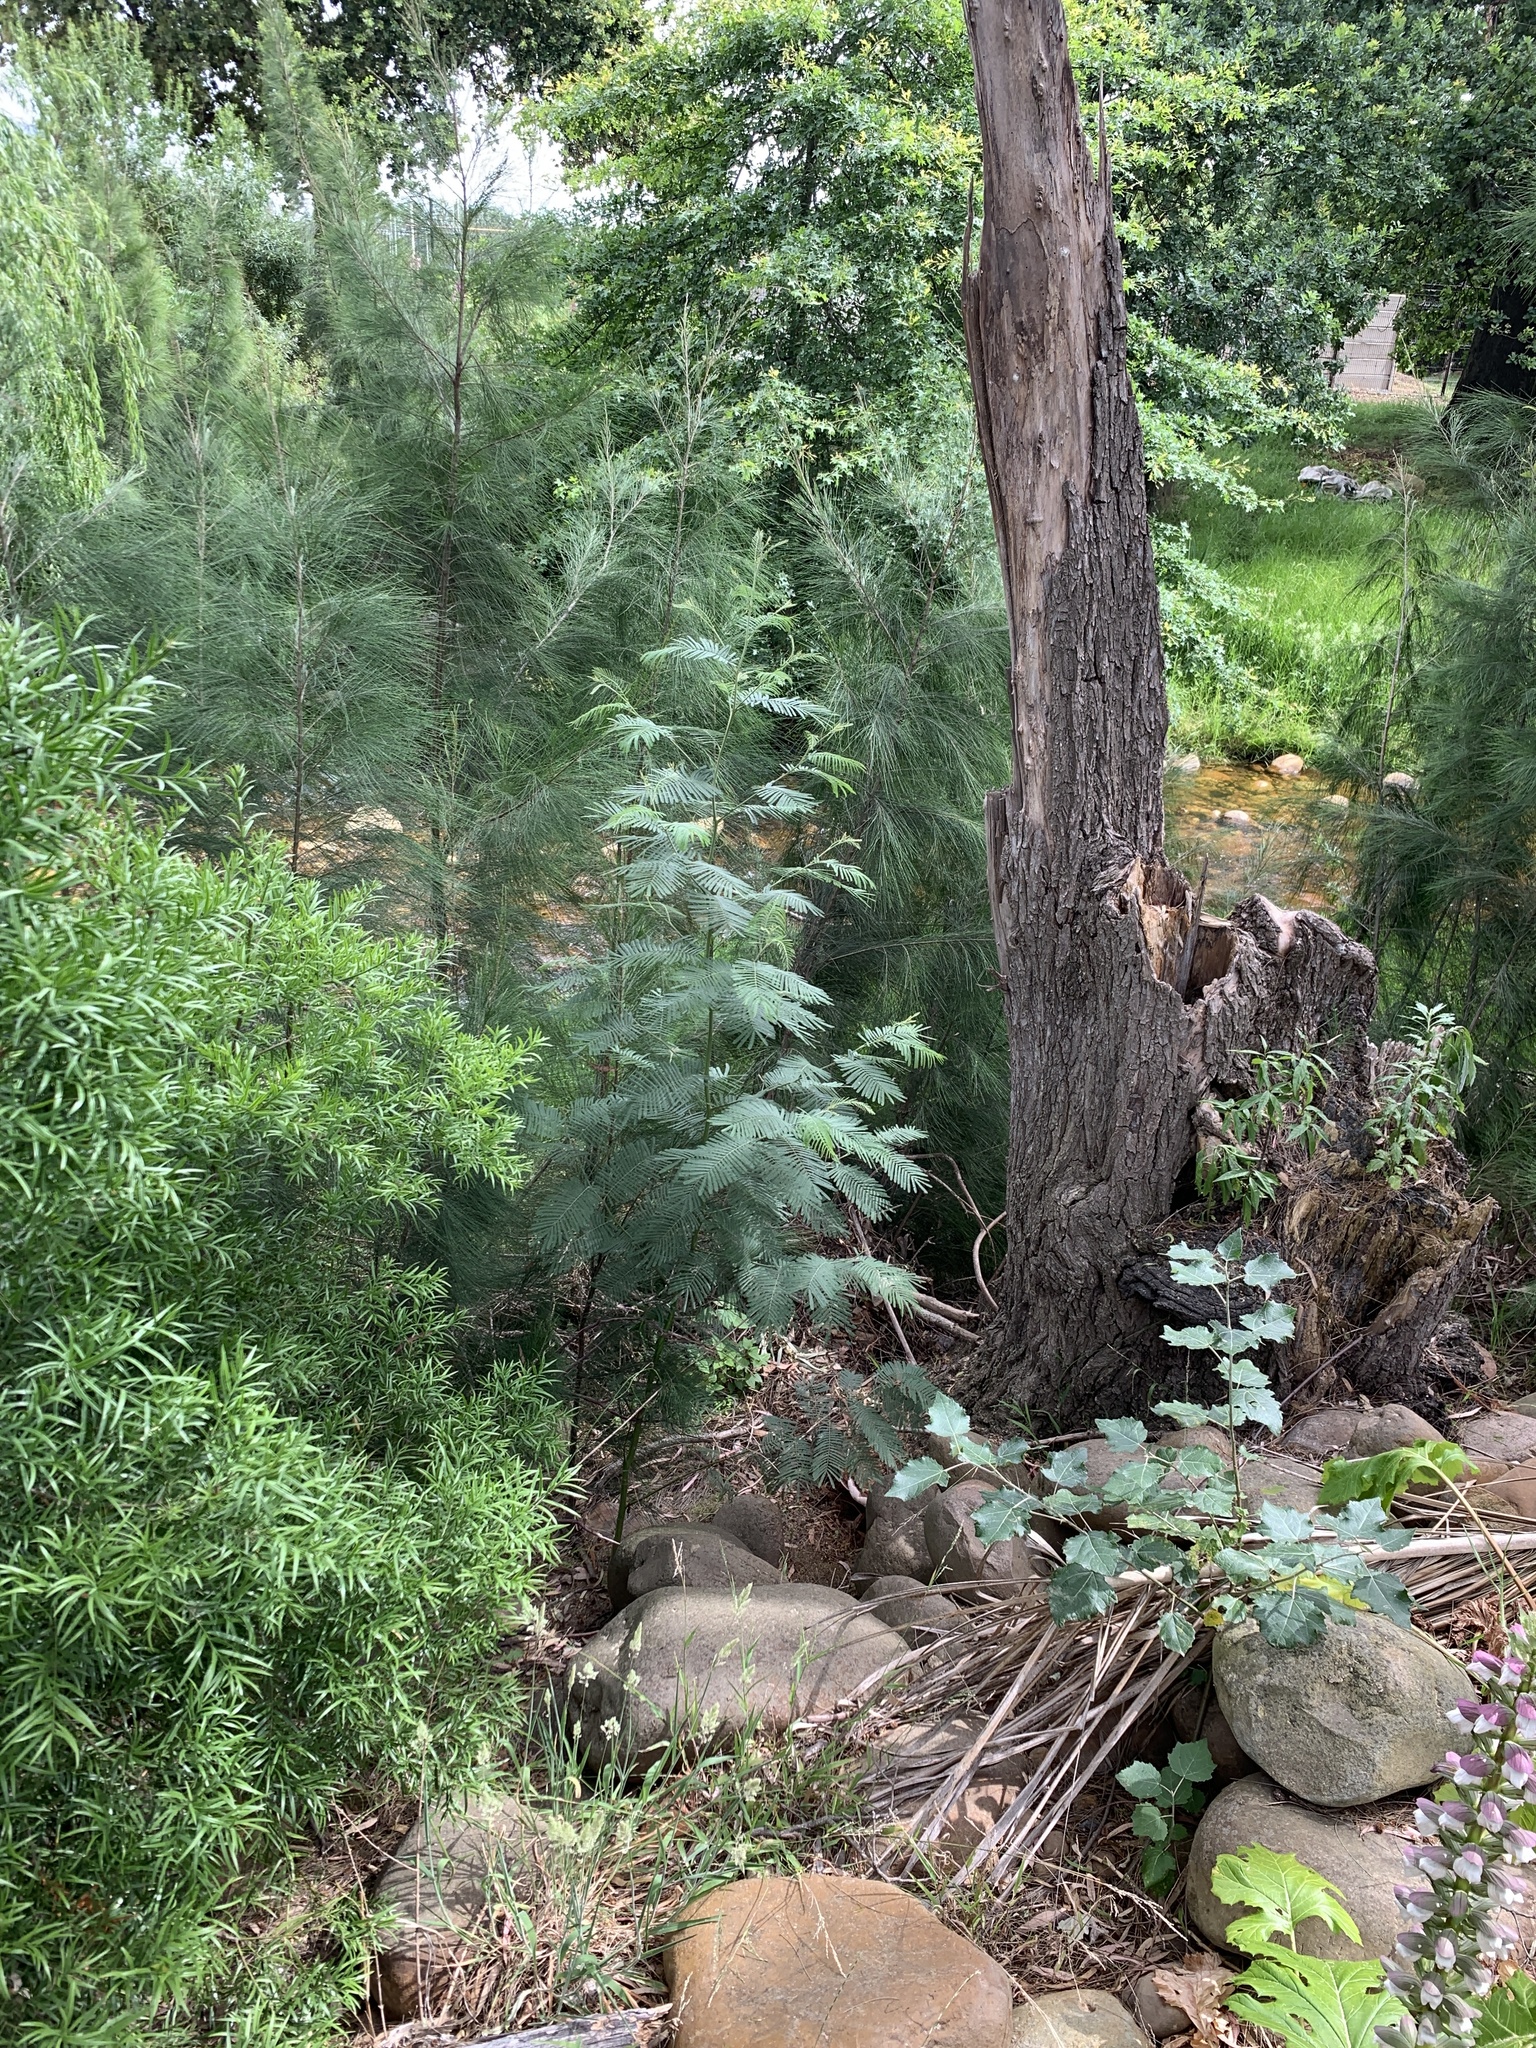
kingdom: Plantae
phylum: Tracheophyta
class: Magnoliopsida
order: Fabales
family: Fabaceae
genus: Acacia
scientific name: Acacia mearnsii
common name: Black wattle
